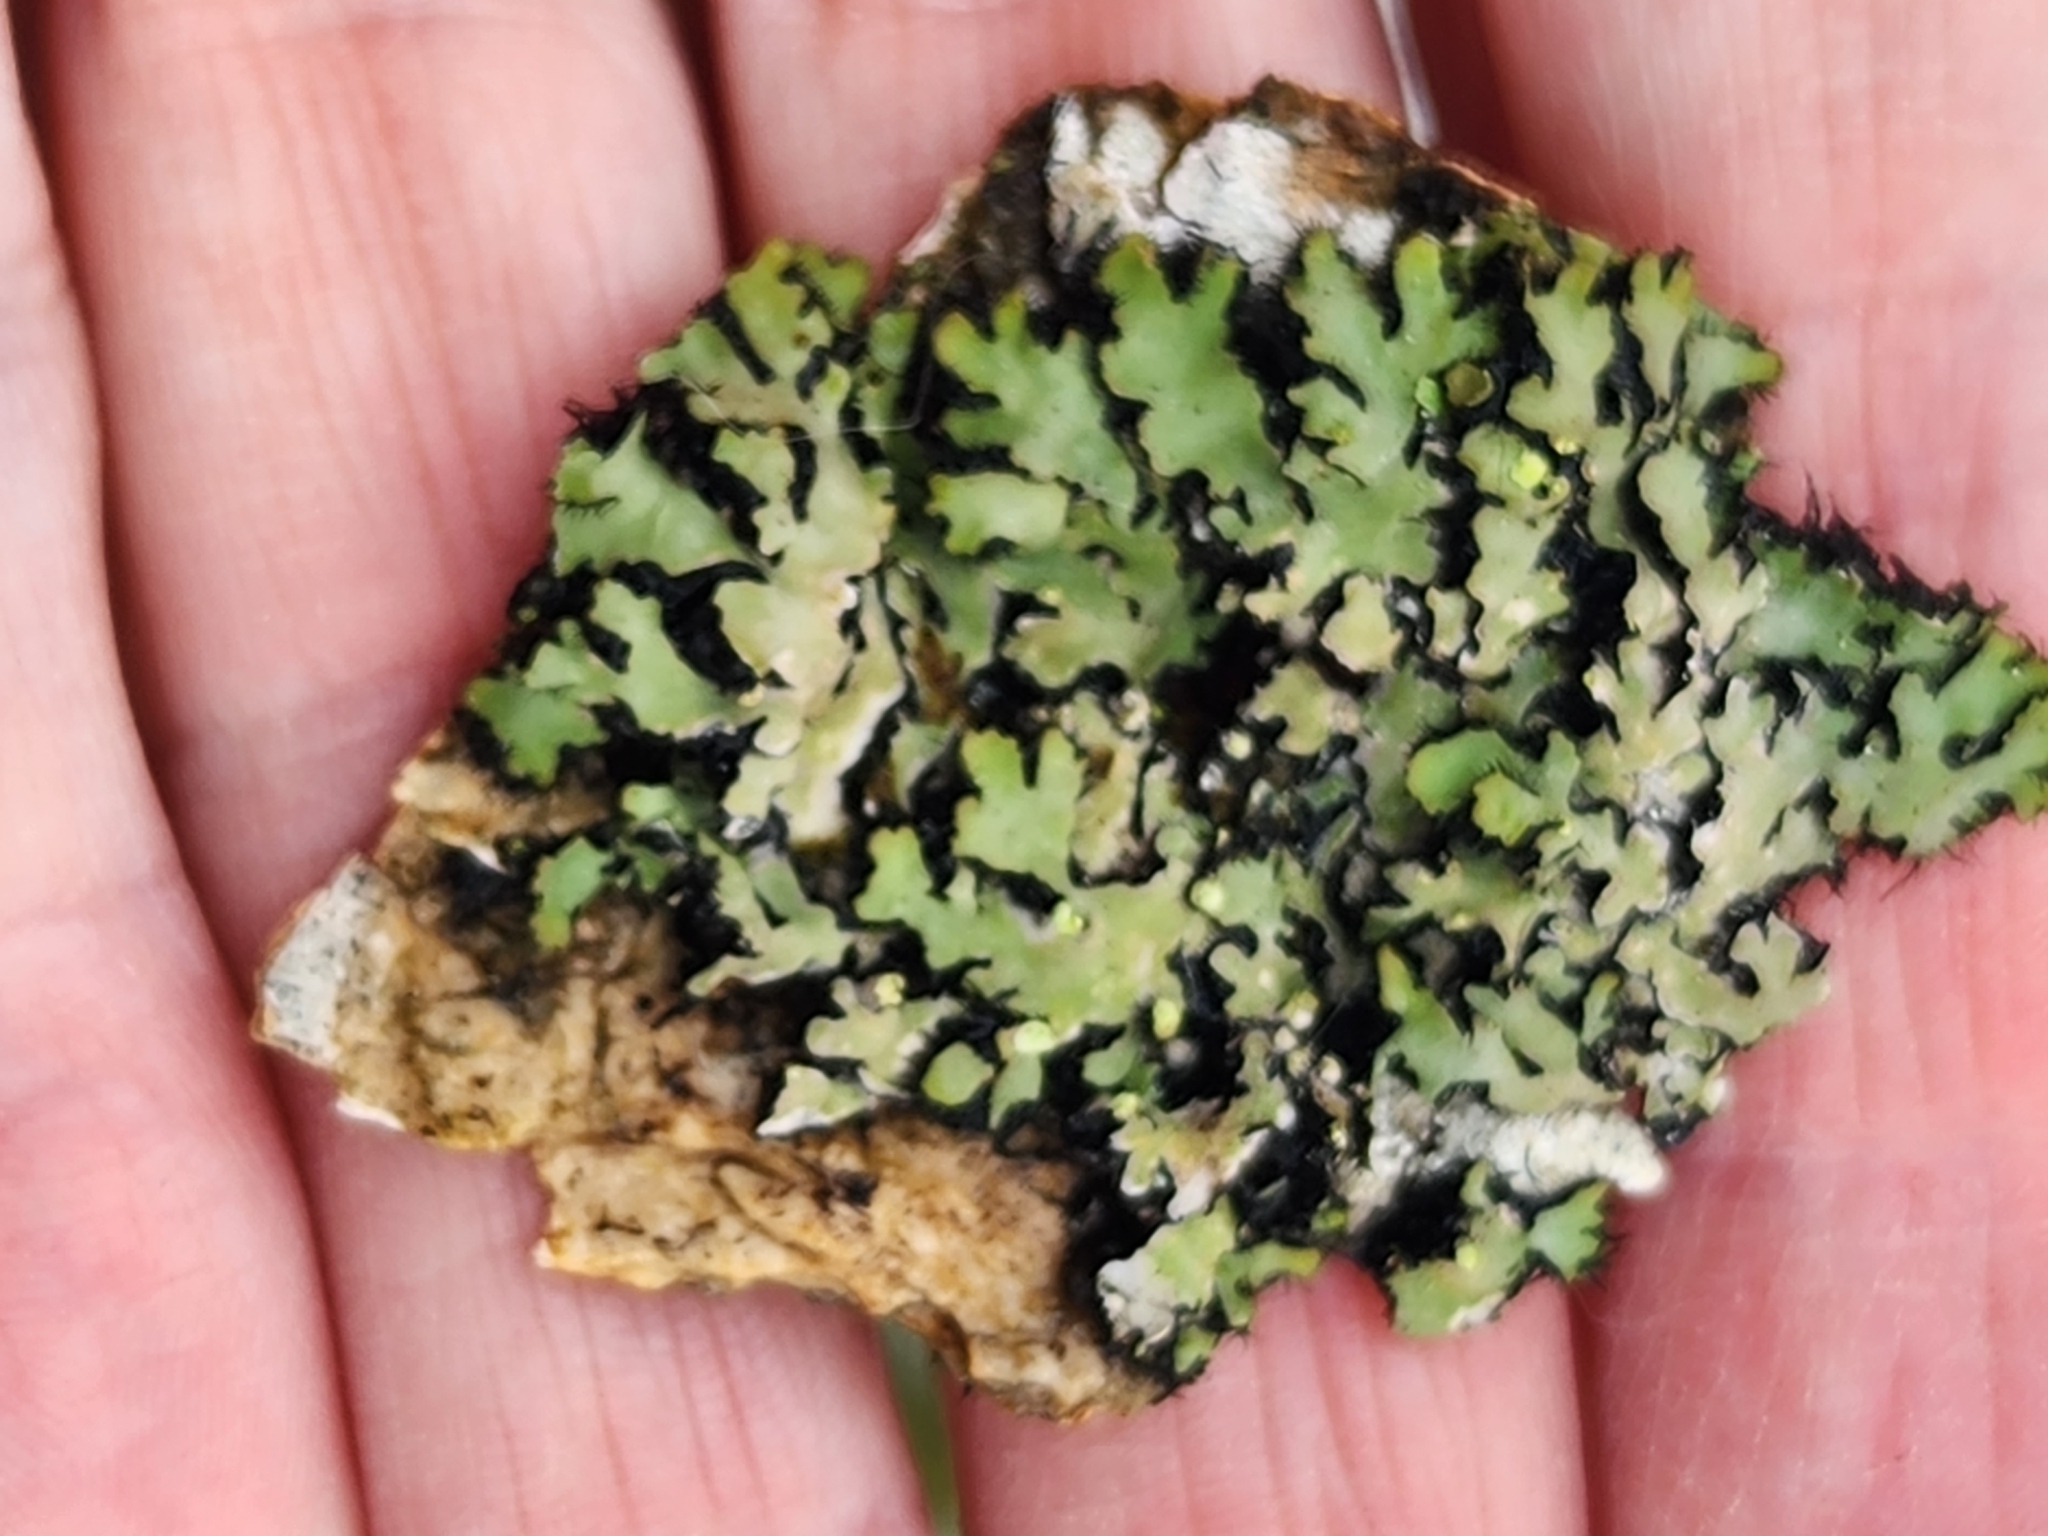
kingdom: Fungi
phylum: Ascomycota
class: Lecanoromycetes
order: Caliciales
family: Physciaceae
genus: Phaeophyscia
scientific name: Phaeophyscia pusilloides
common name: Pom-pom shadow lichen
